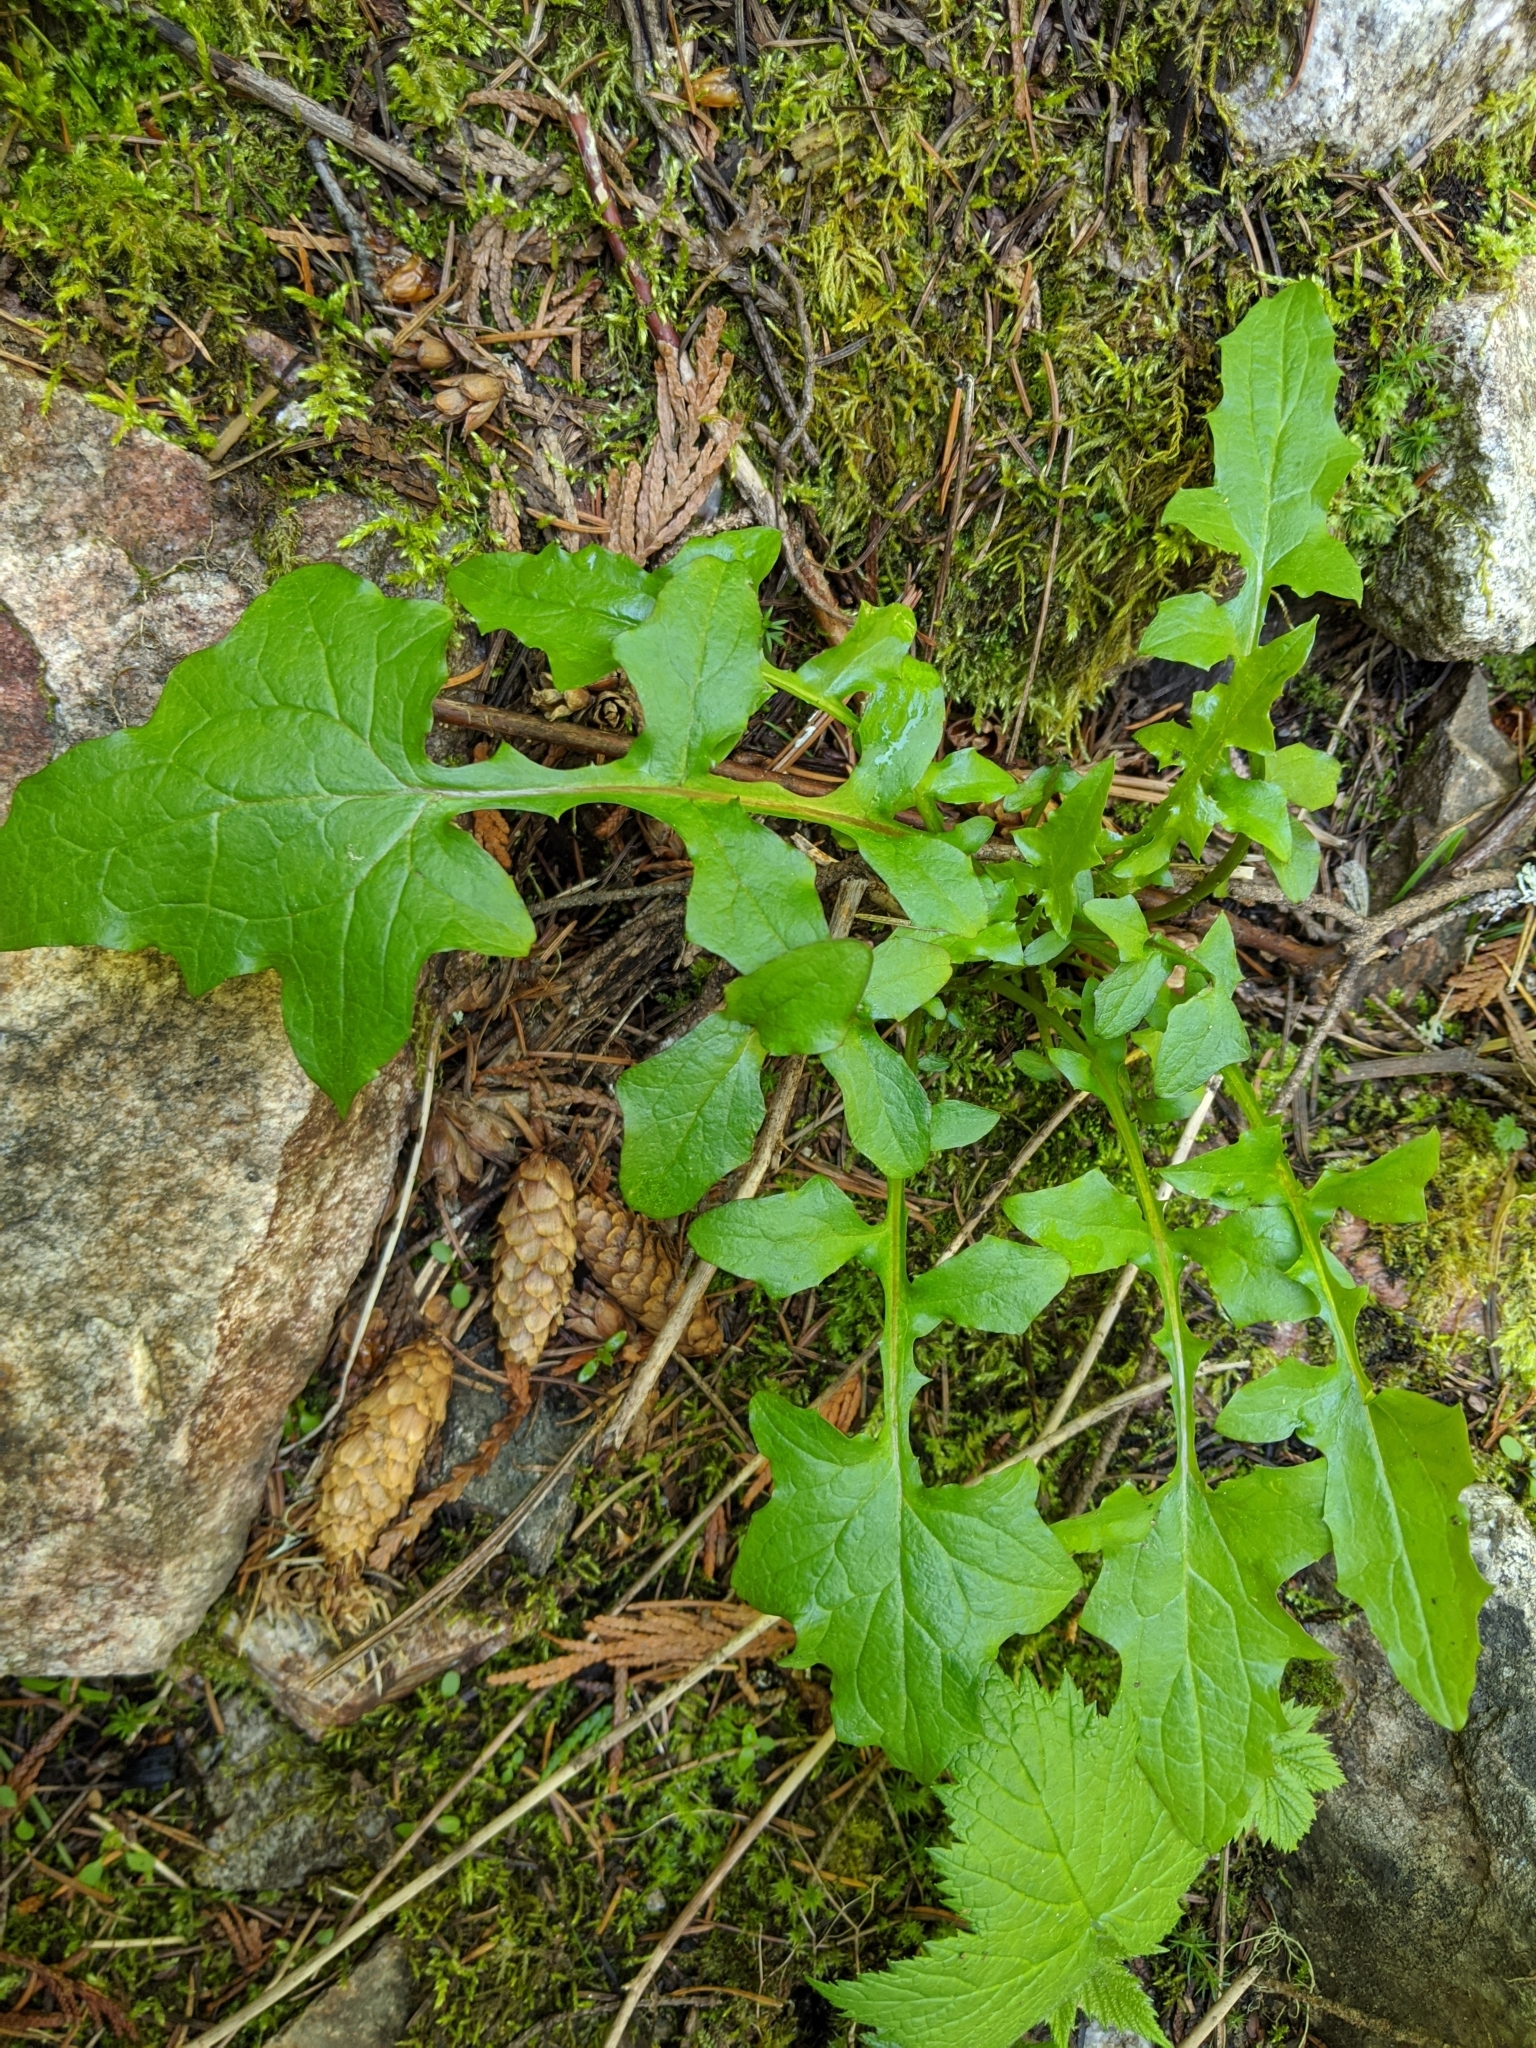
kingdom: Plantae
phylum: Tracheophyta
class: Magnoliopsida
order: Asterales
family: Asteraceae
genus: Mycelis
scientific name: Mycelis muralis
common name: Wall lettuce
